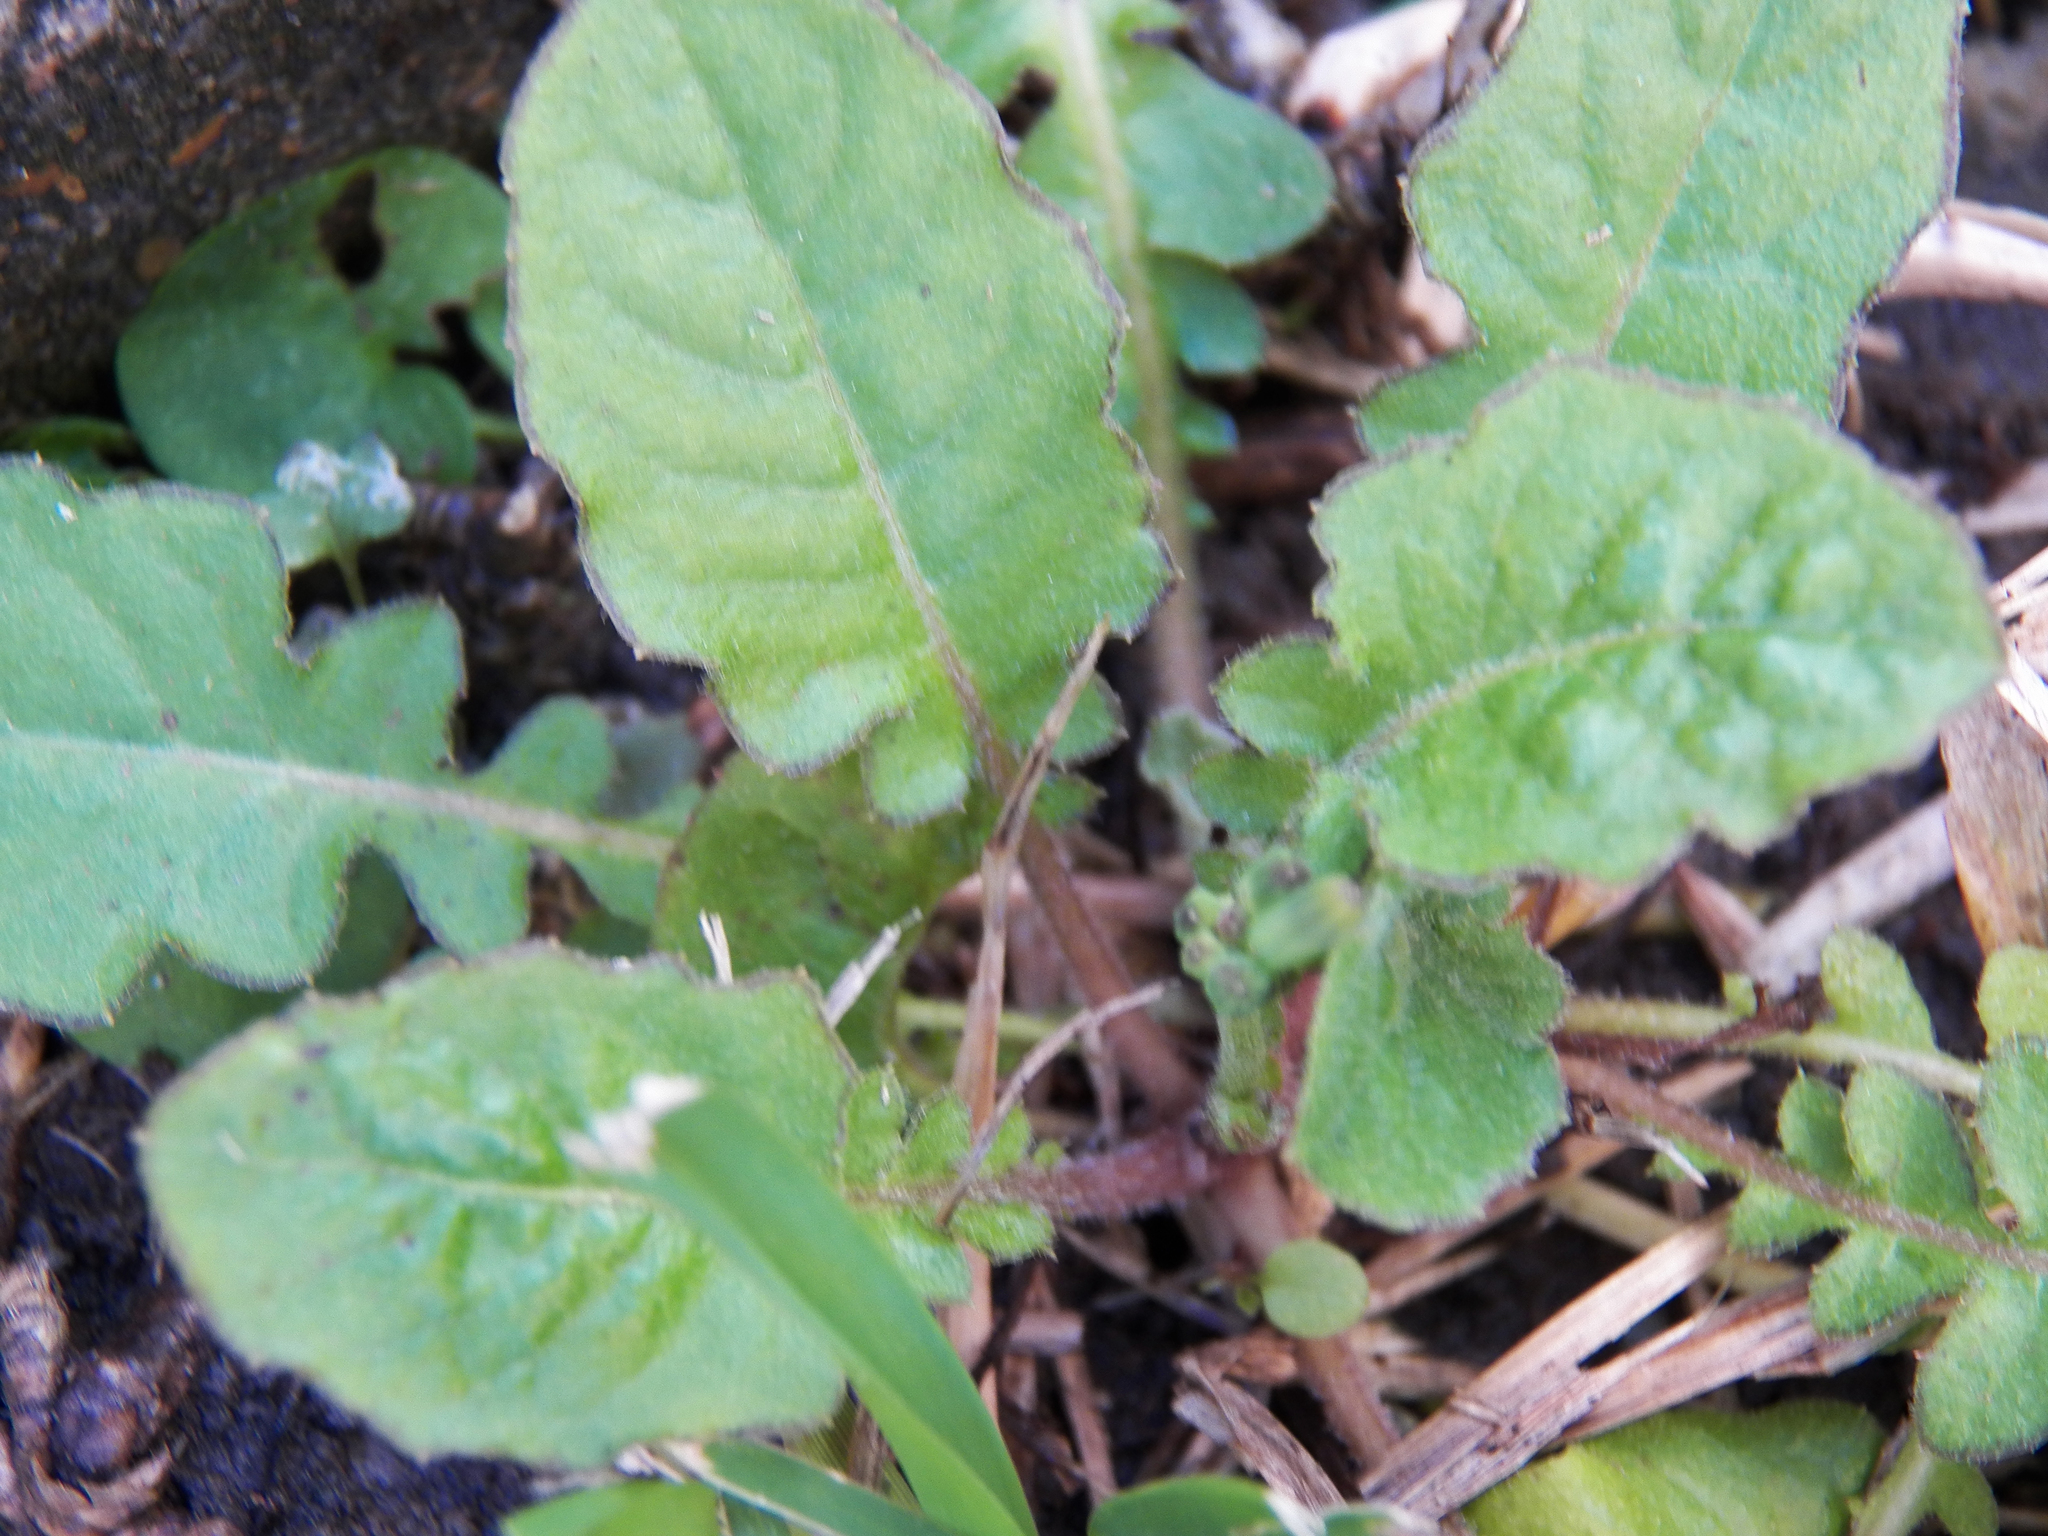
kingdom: Plantae
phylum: Tracheophyta
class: Magnoliopsida
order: Asterales
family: Asteraceae
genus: Youngia
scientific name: Youngia japonica
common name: Oriental false hawksbeard
